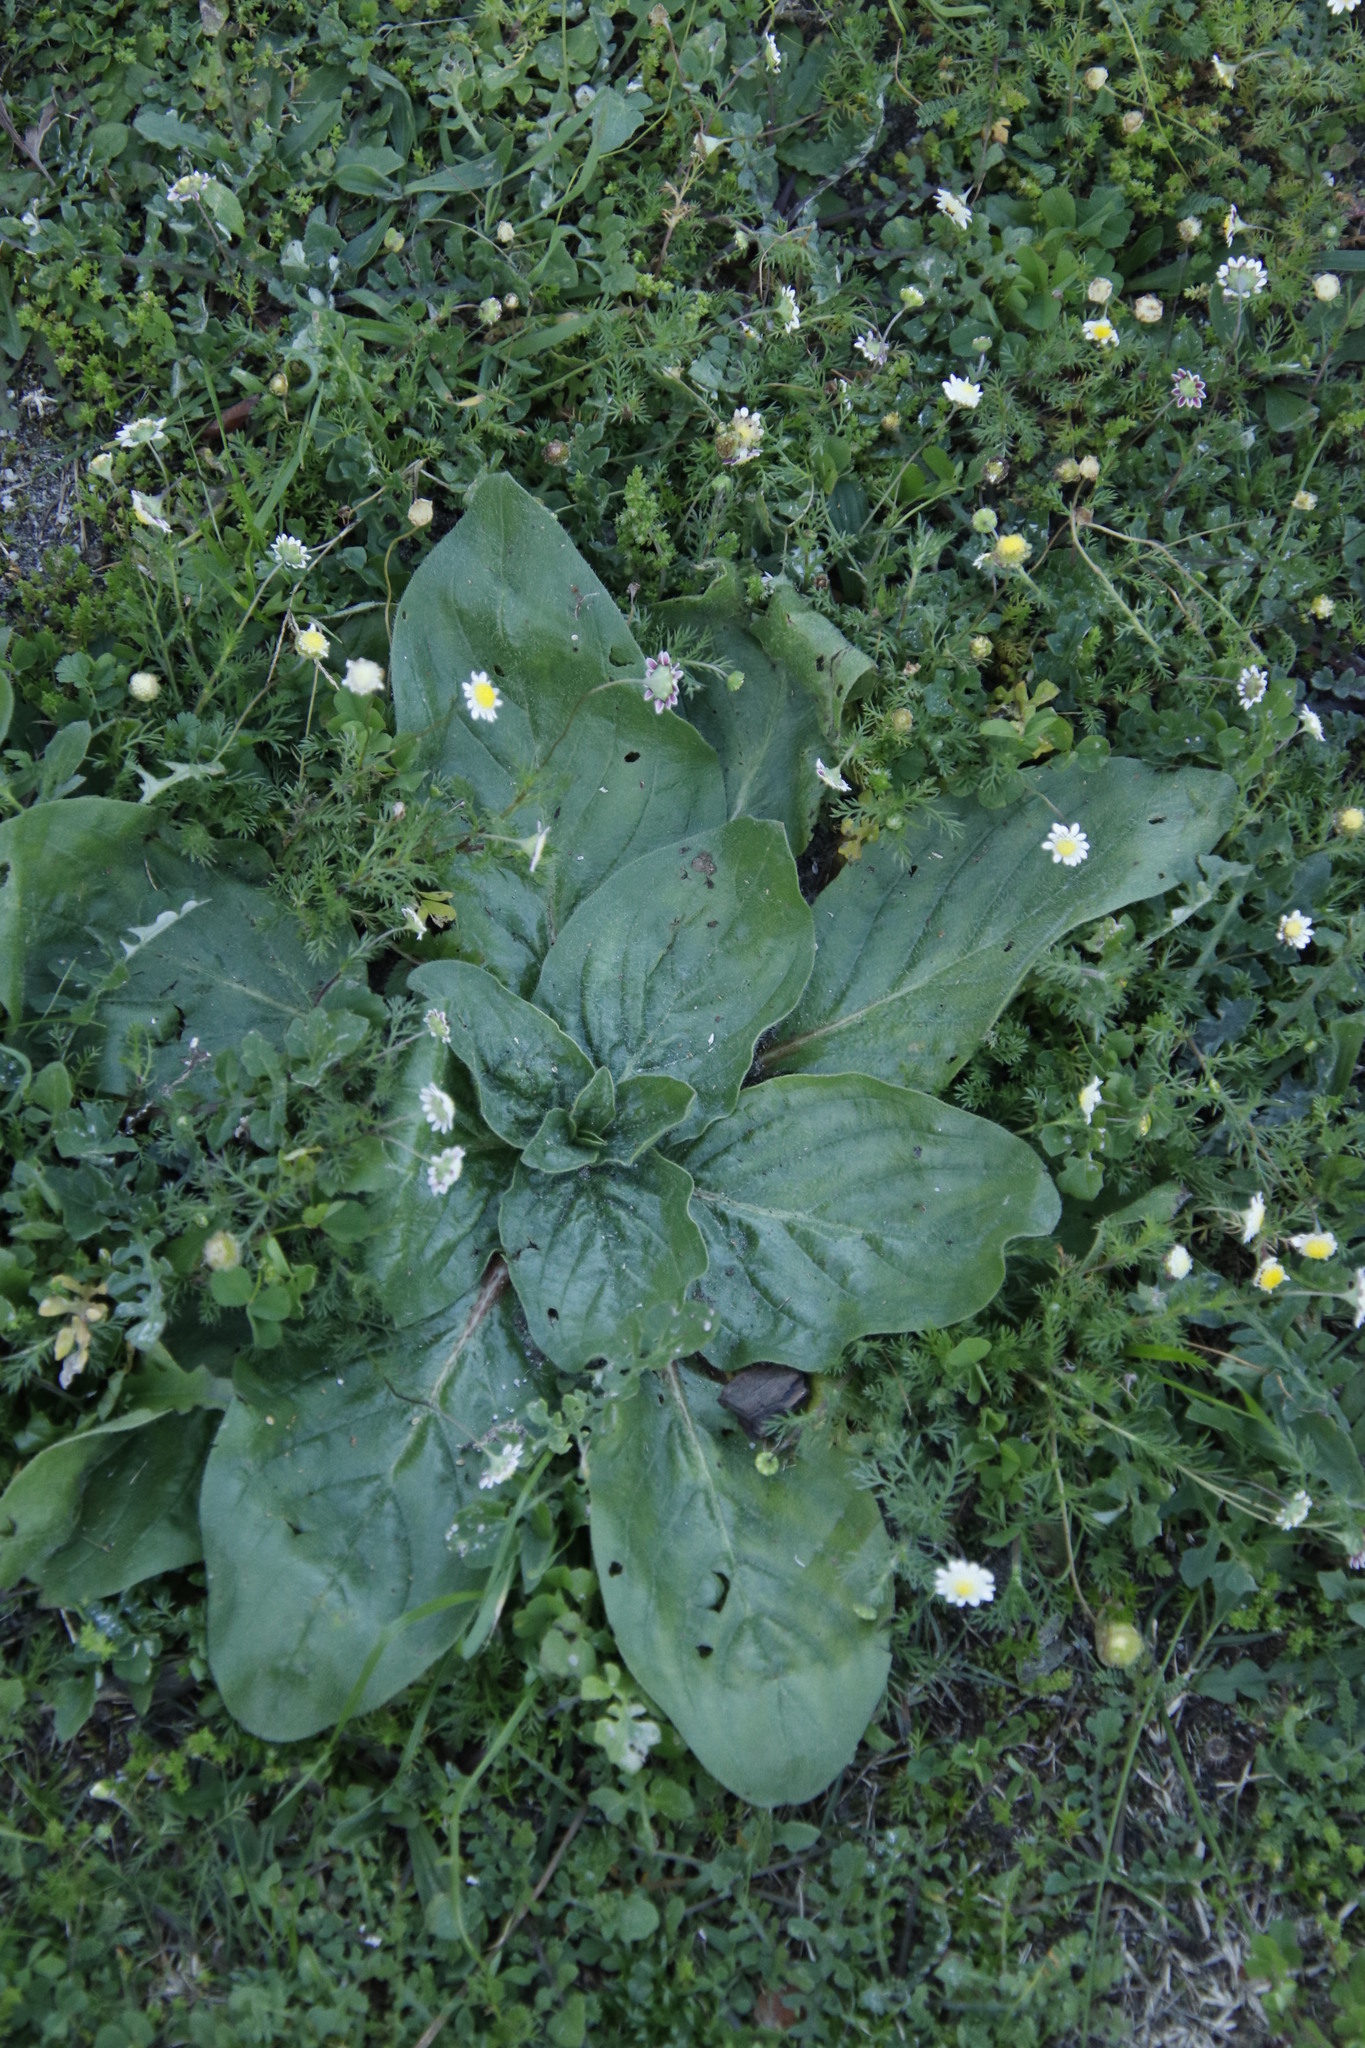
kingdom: Plantae
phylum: Tracheophyta
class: Magnoliopsida
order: Boraginales
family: Boraginaceae
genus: Echium
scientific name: Echium plantagineum
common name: Purple viper's-bugloss
